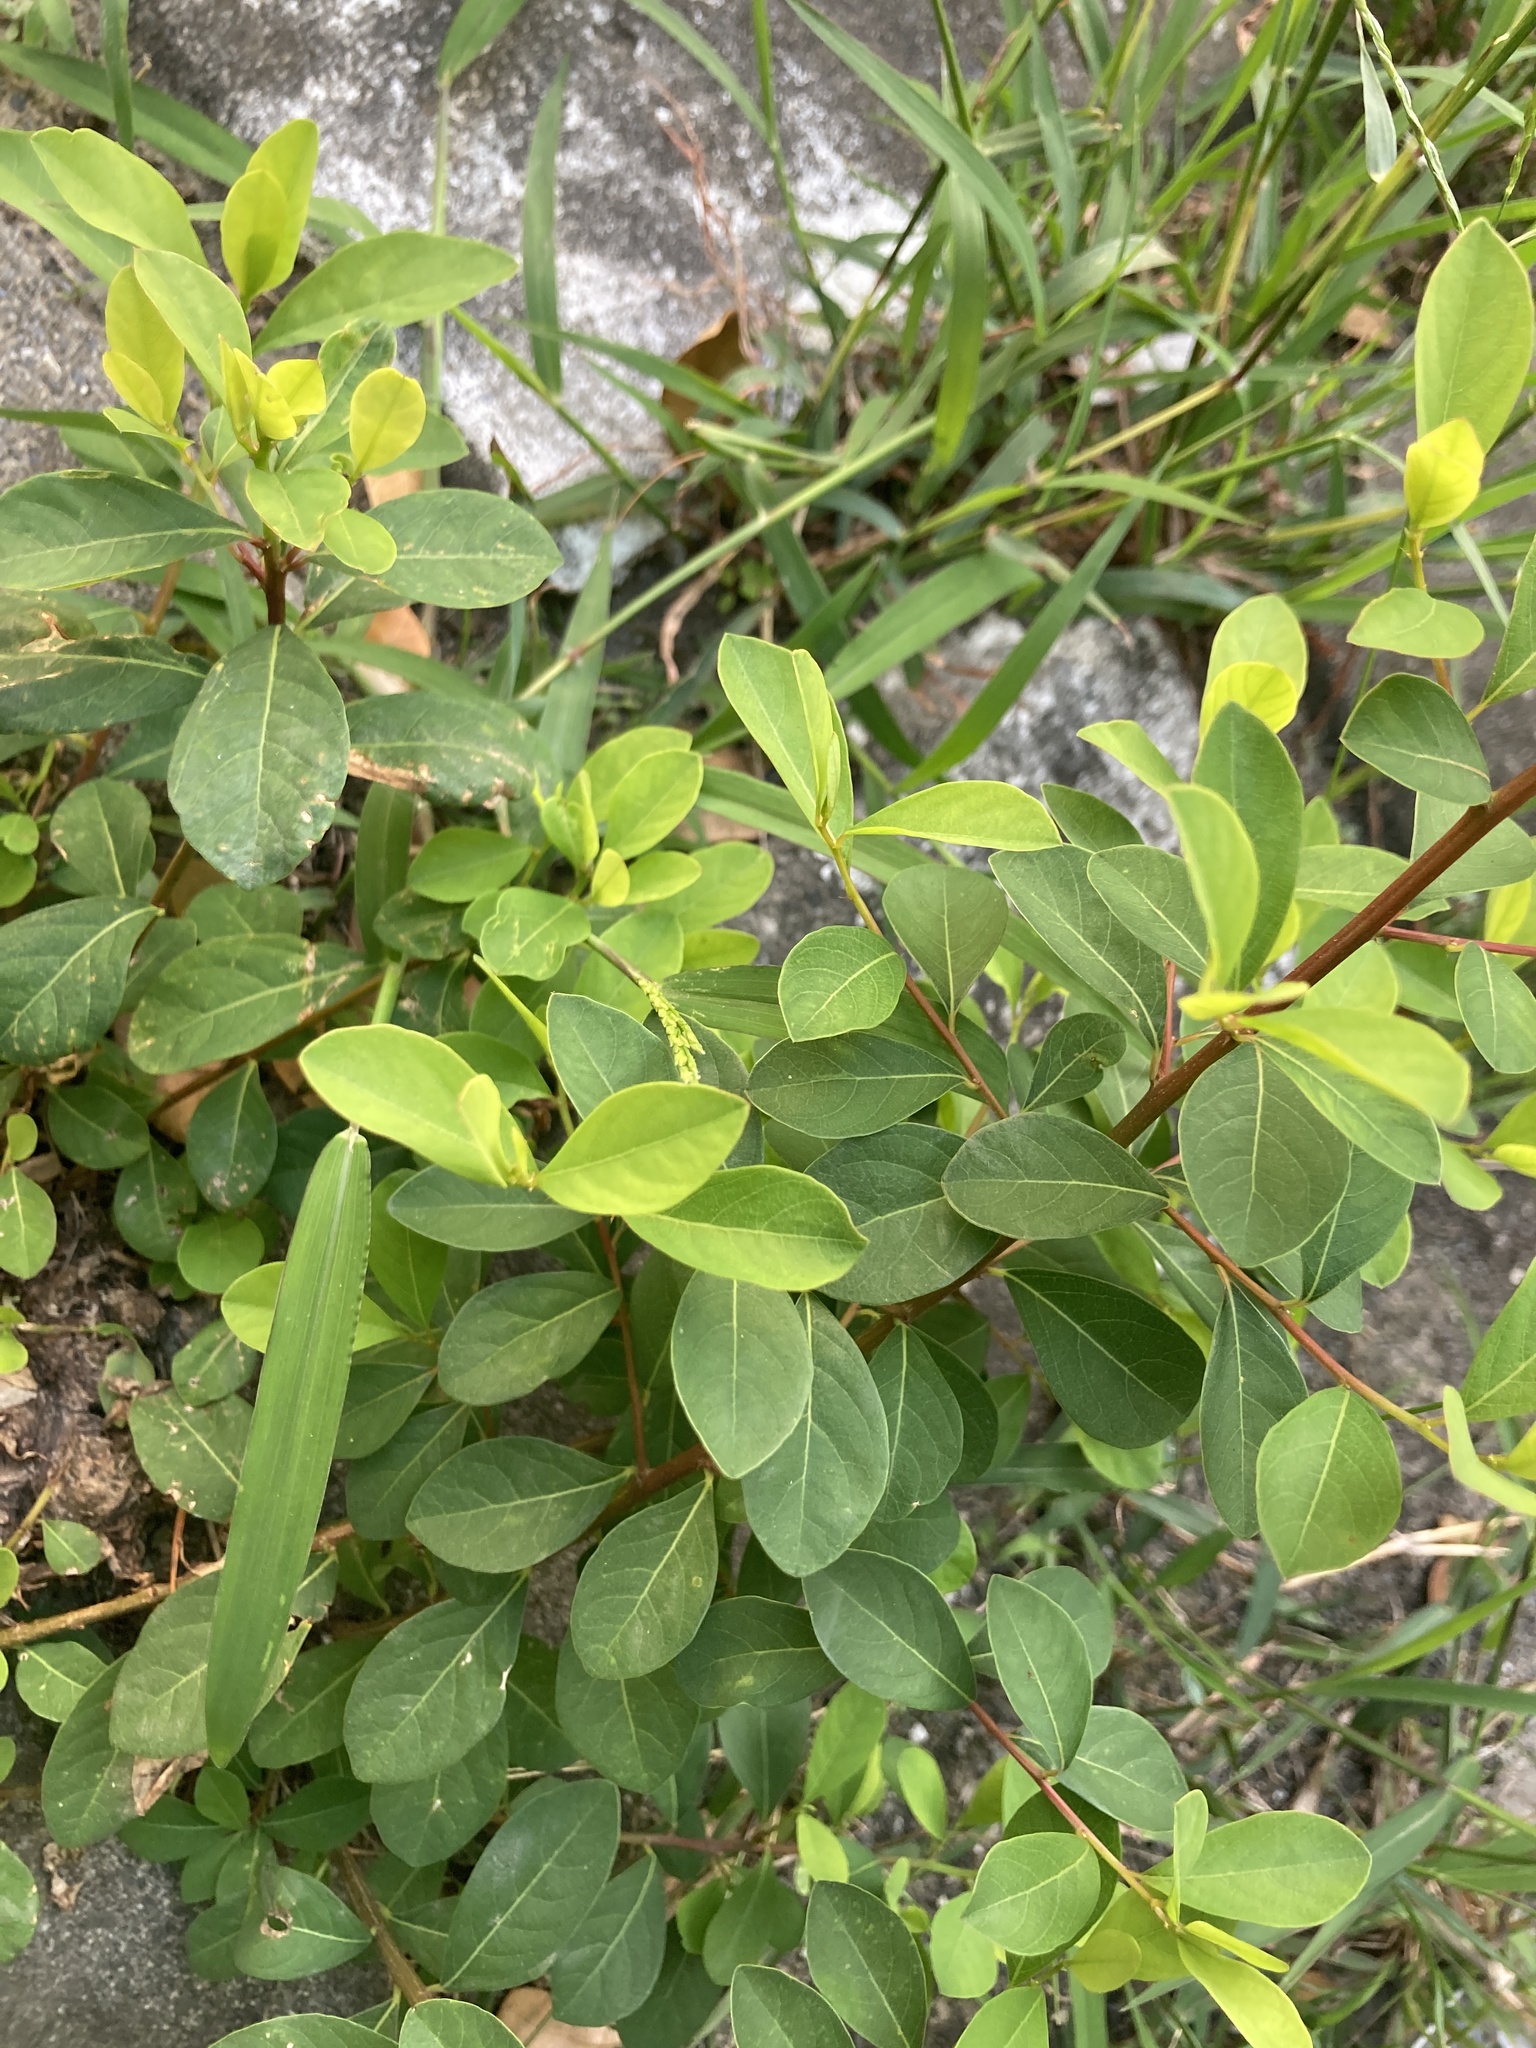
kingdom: Plantae
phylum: Tracheophyta
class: Magnoliopsida
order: Malpighiales
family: Phyllanthaceae
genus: Flueggea
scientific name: Flueggea virosa
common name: Common bushweed
